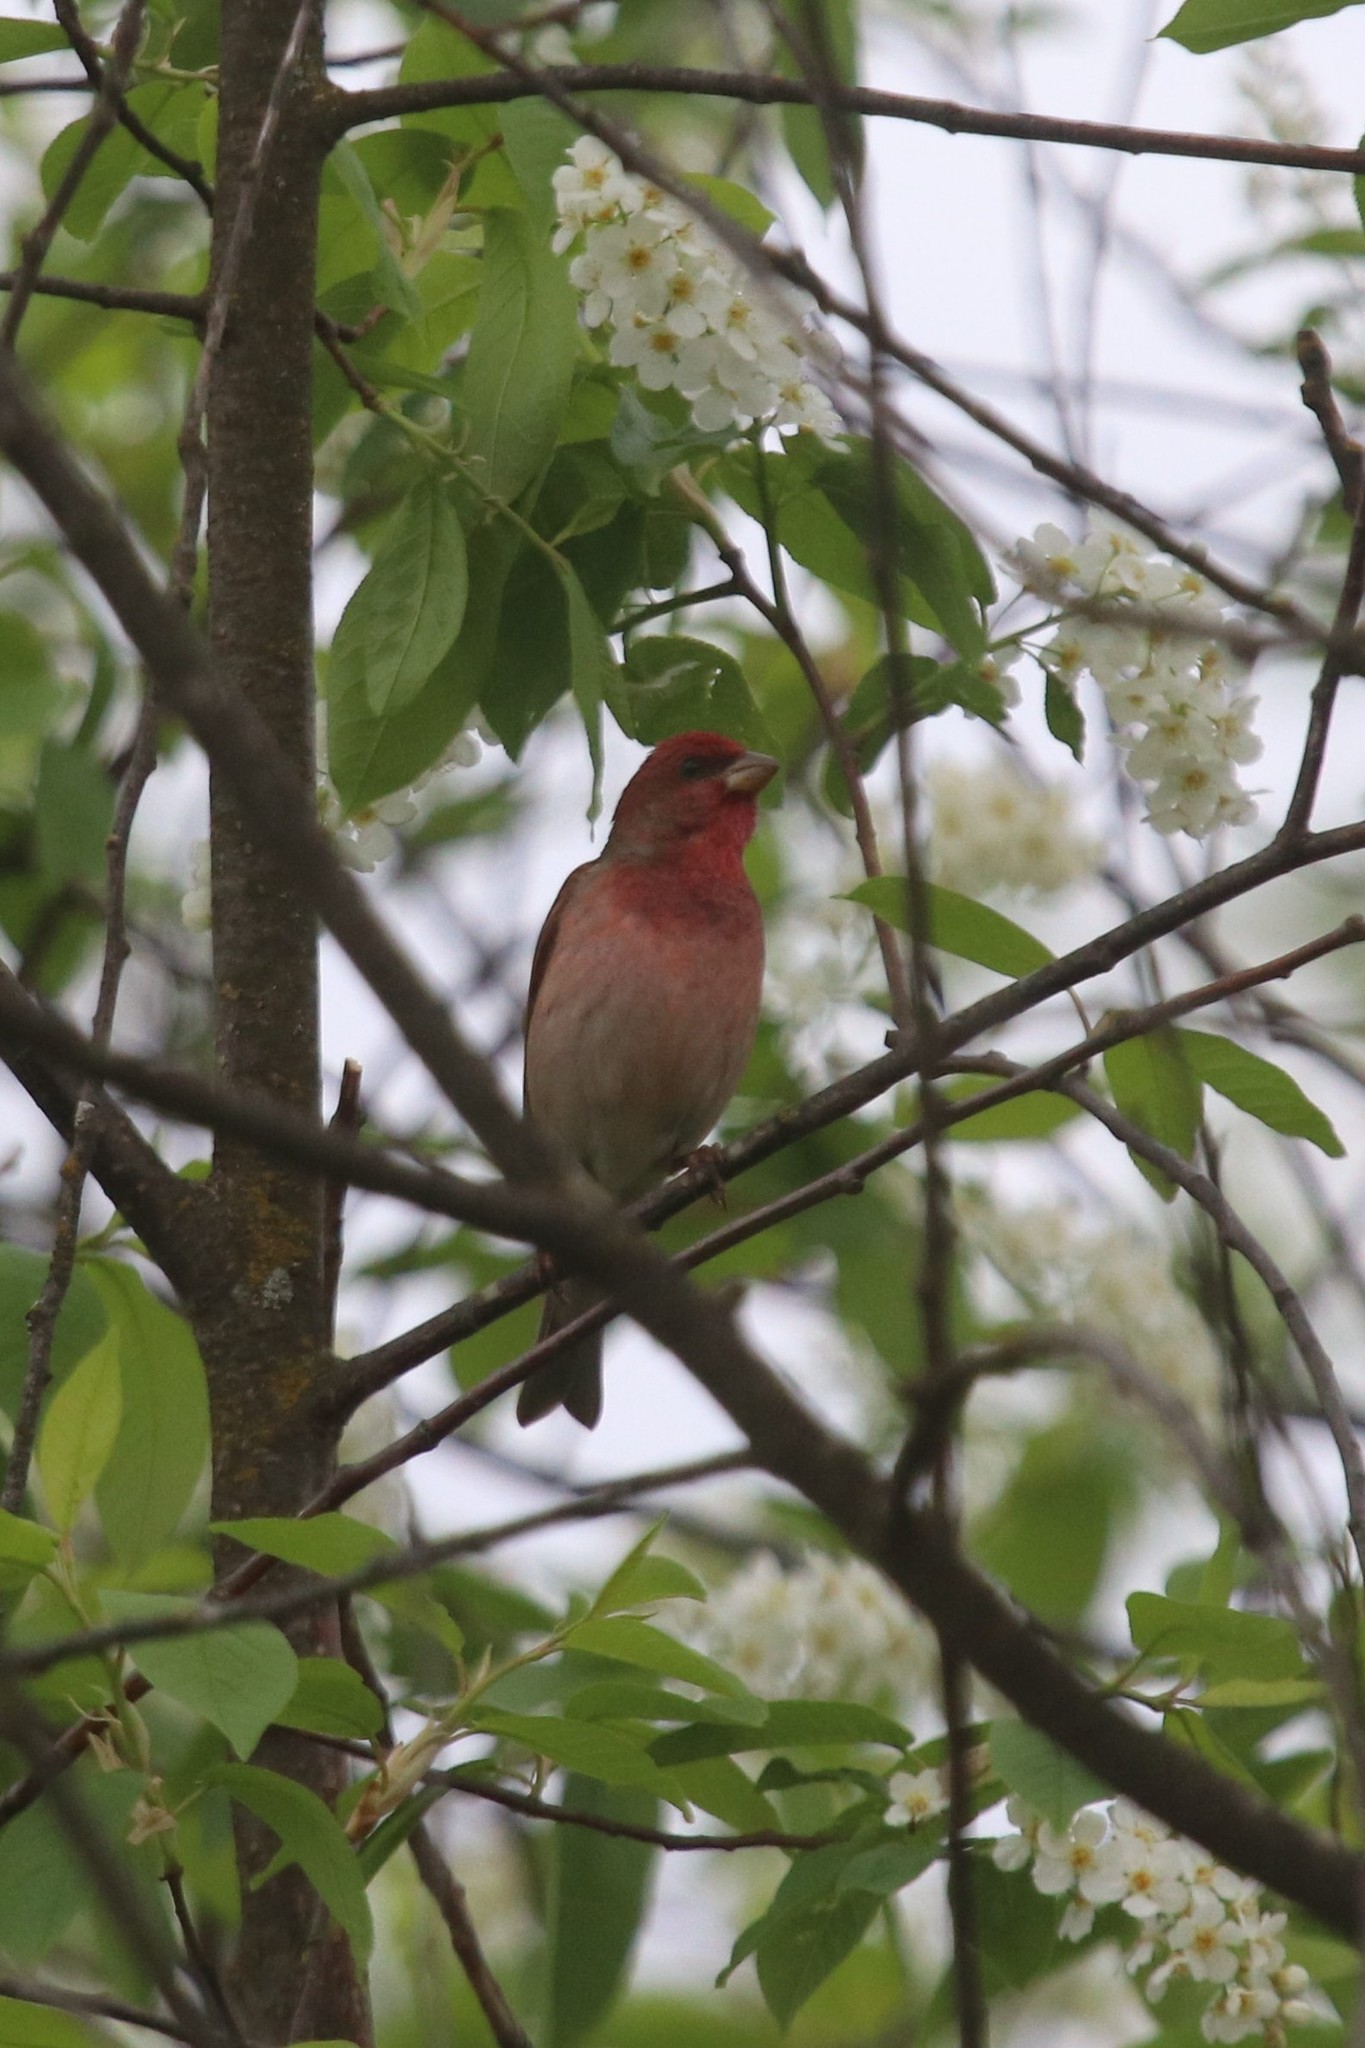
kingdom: Animalia
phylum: Chordata
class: Aves
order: Passeriformes
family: Fringillidae
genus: Carpodacus
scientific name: Carpodacus erythrinus
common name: Common rosefinch
